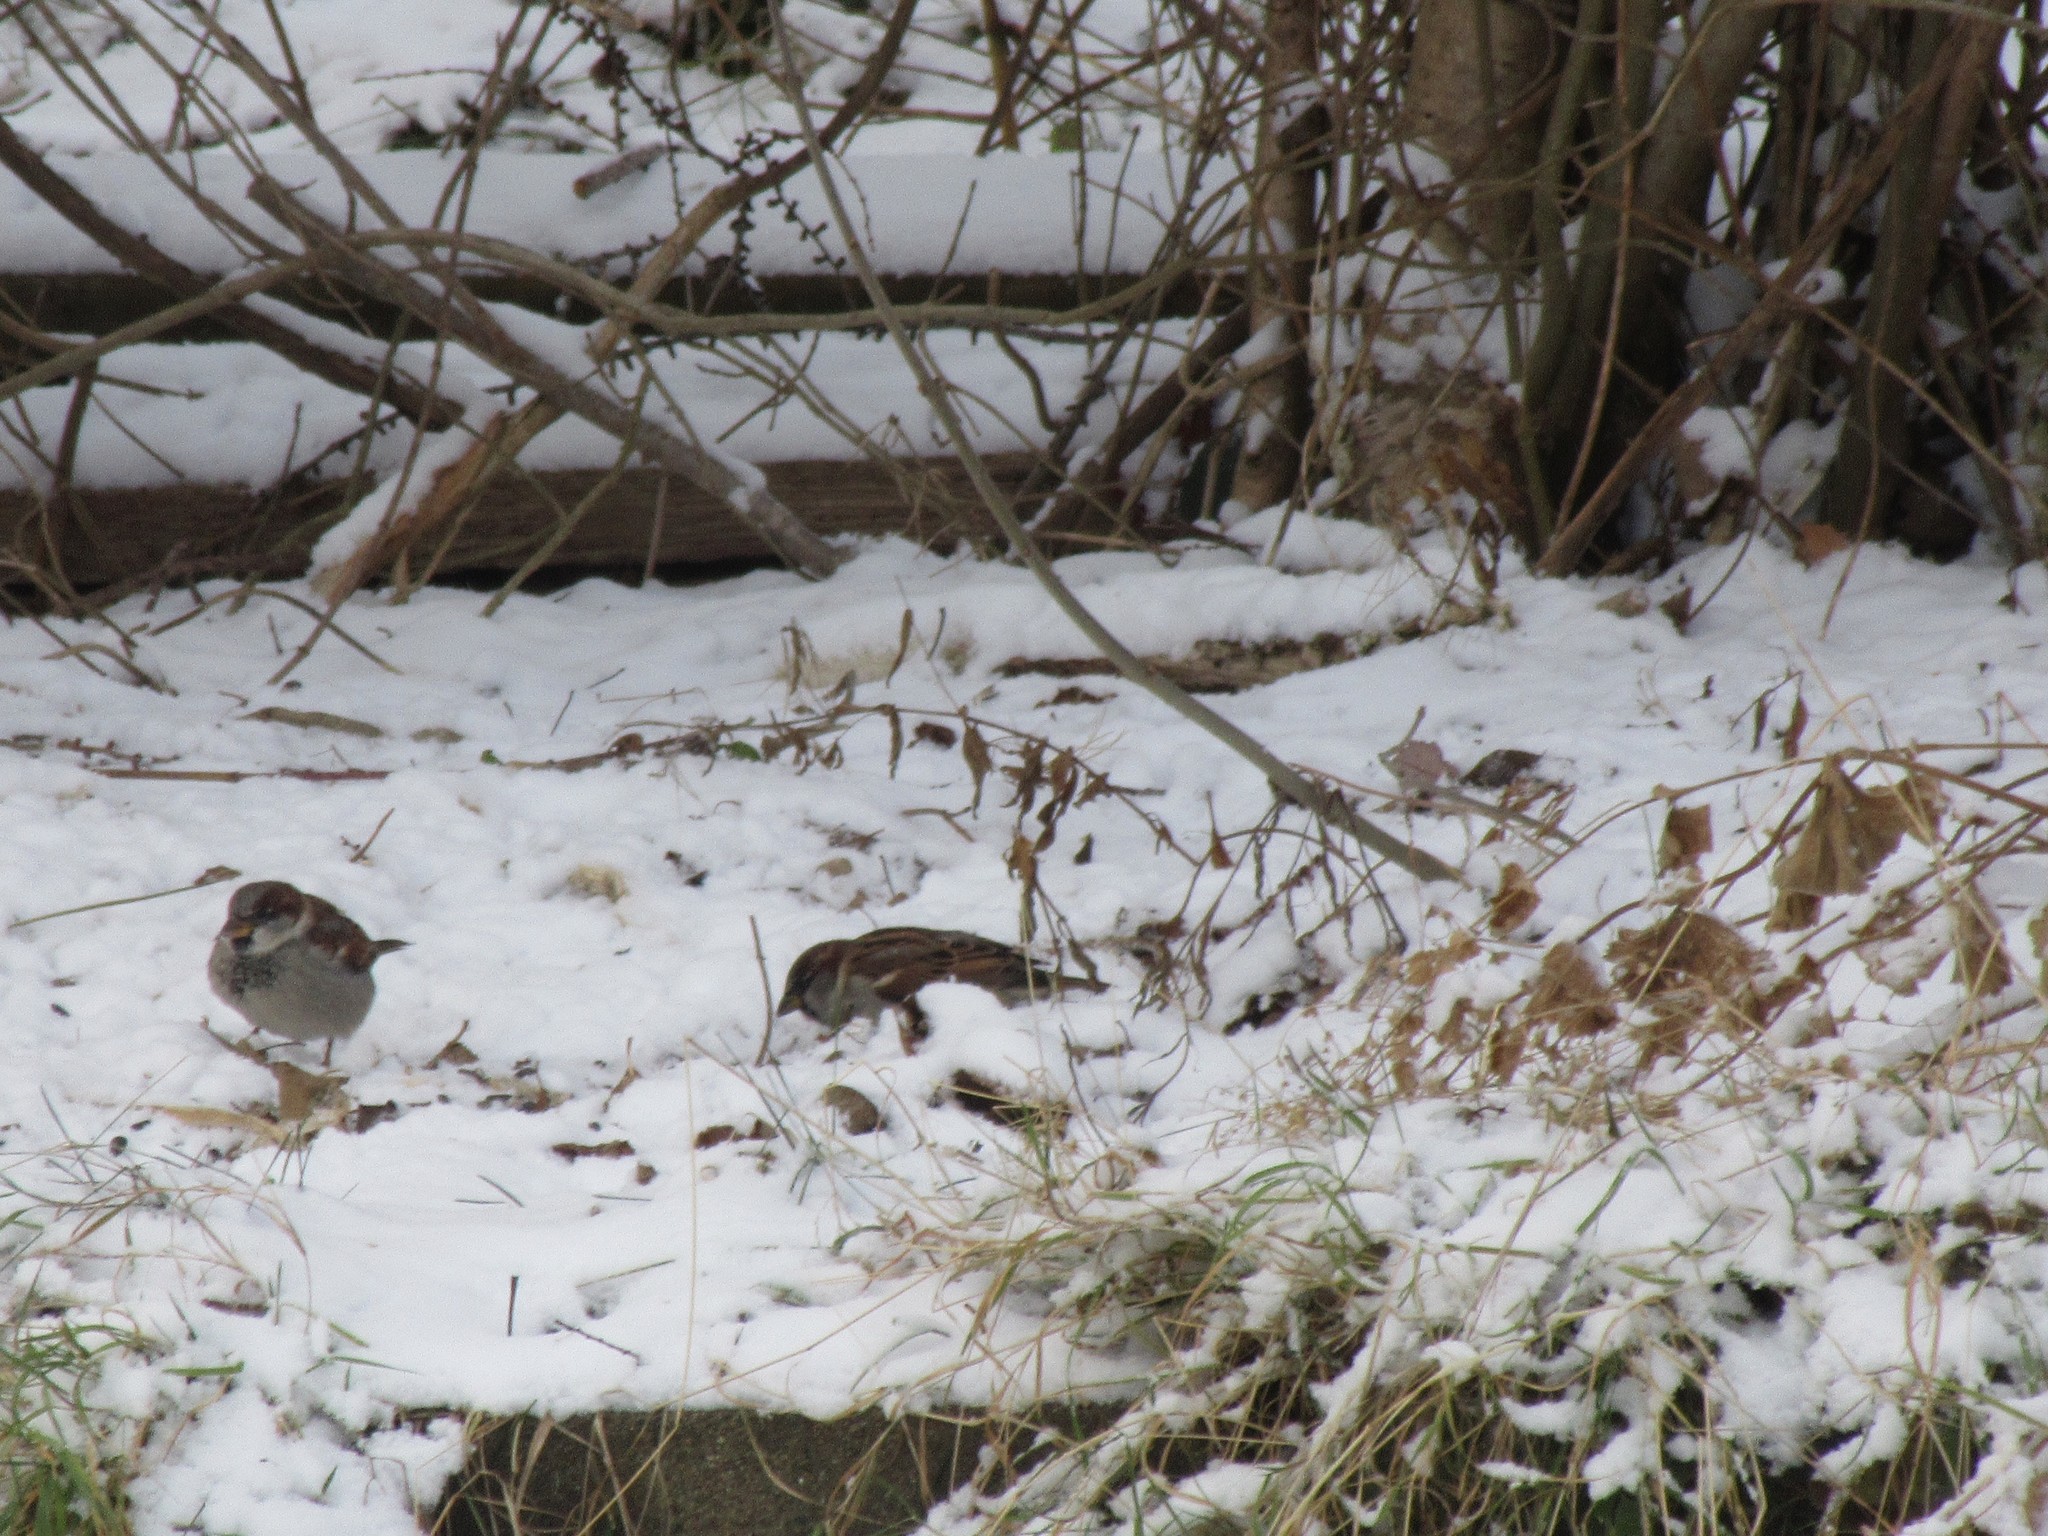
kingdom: Animalia
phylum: Chordata
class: Aves
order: Passeriformes
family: Passeridae
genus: Passer
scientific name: Passer domesticus
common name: House sparrow
